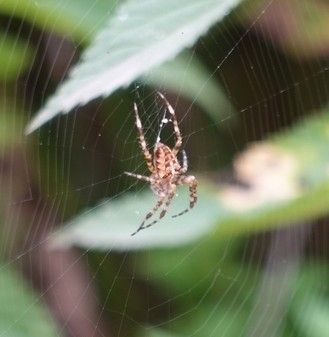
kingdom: Animalia
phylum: Arthropoda
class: Arachnida
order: Araneae
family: Araneidae
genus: Araneus
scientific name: Araneus diadematus
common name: Cross orbweaver
